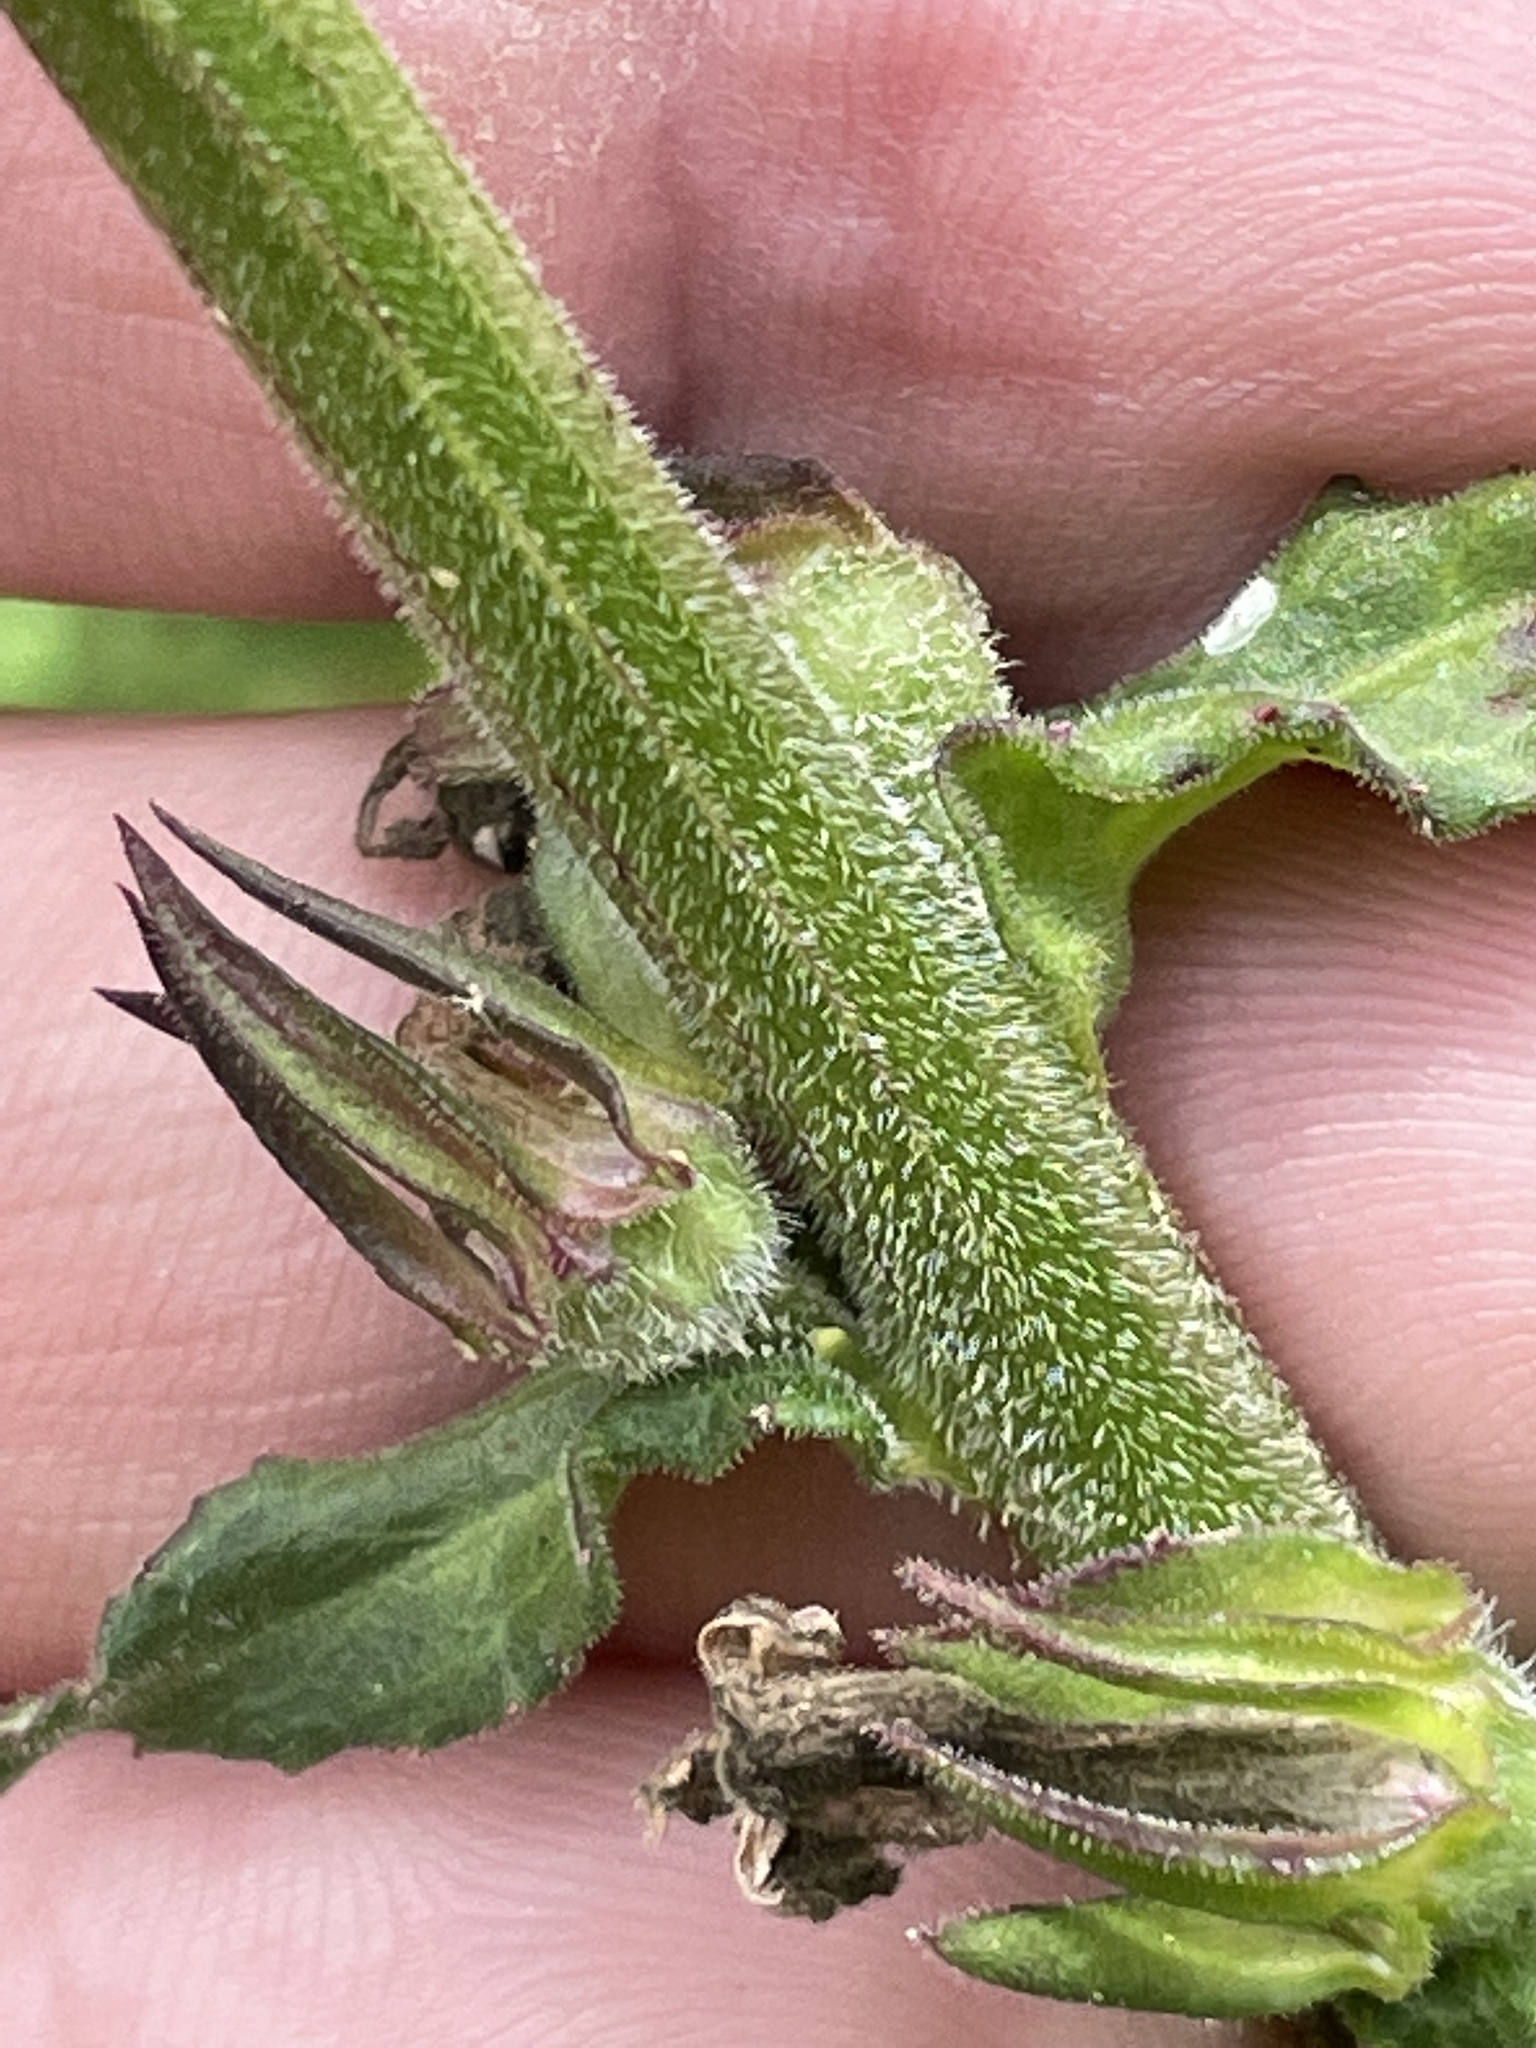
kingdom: Plantae
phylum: Tracheophyta
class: Magnoliopsida
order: Asterales
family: Campanulaceae
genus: Lobelia
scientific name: Lobelia puberula
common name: Purple dewdrop
